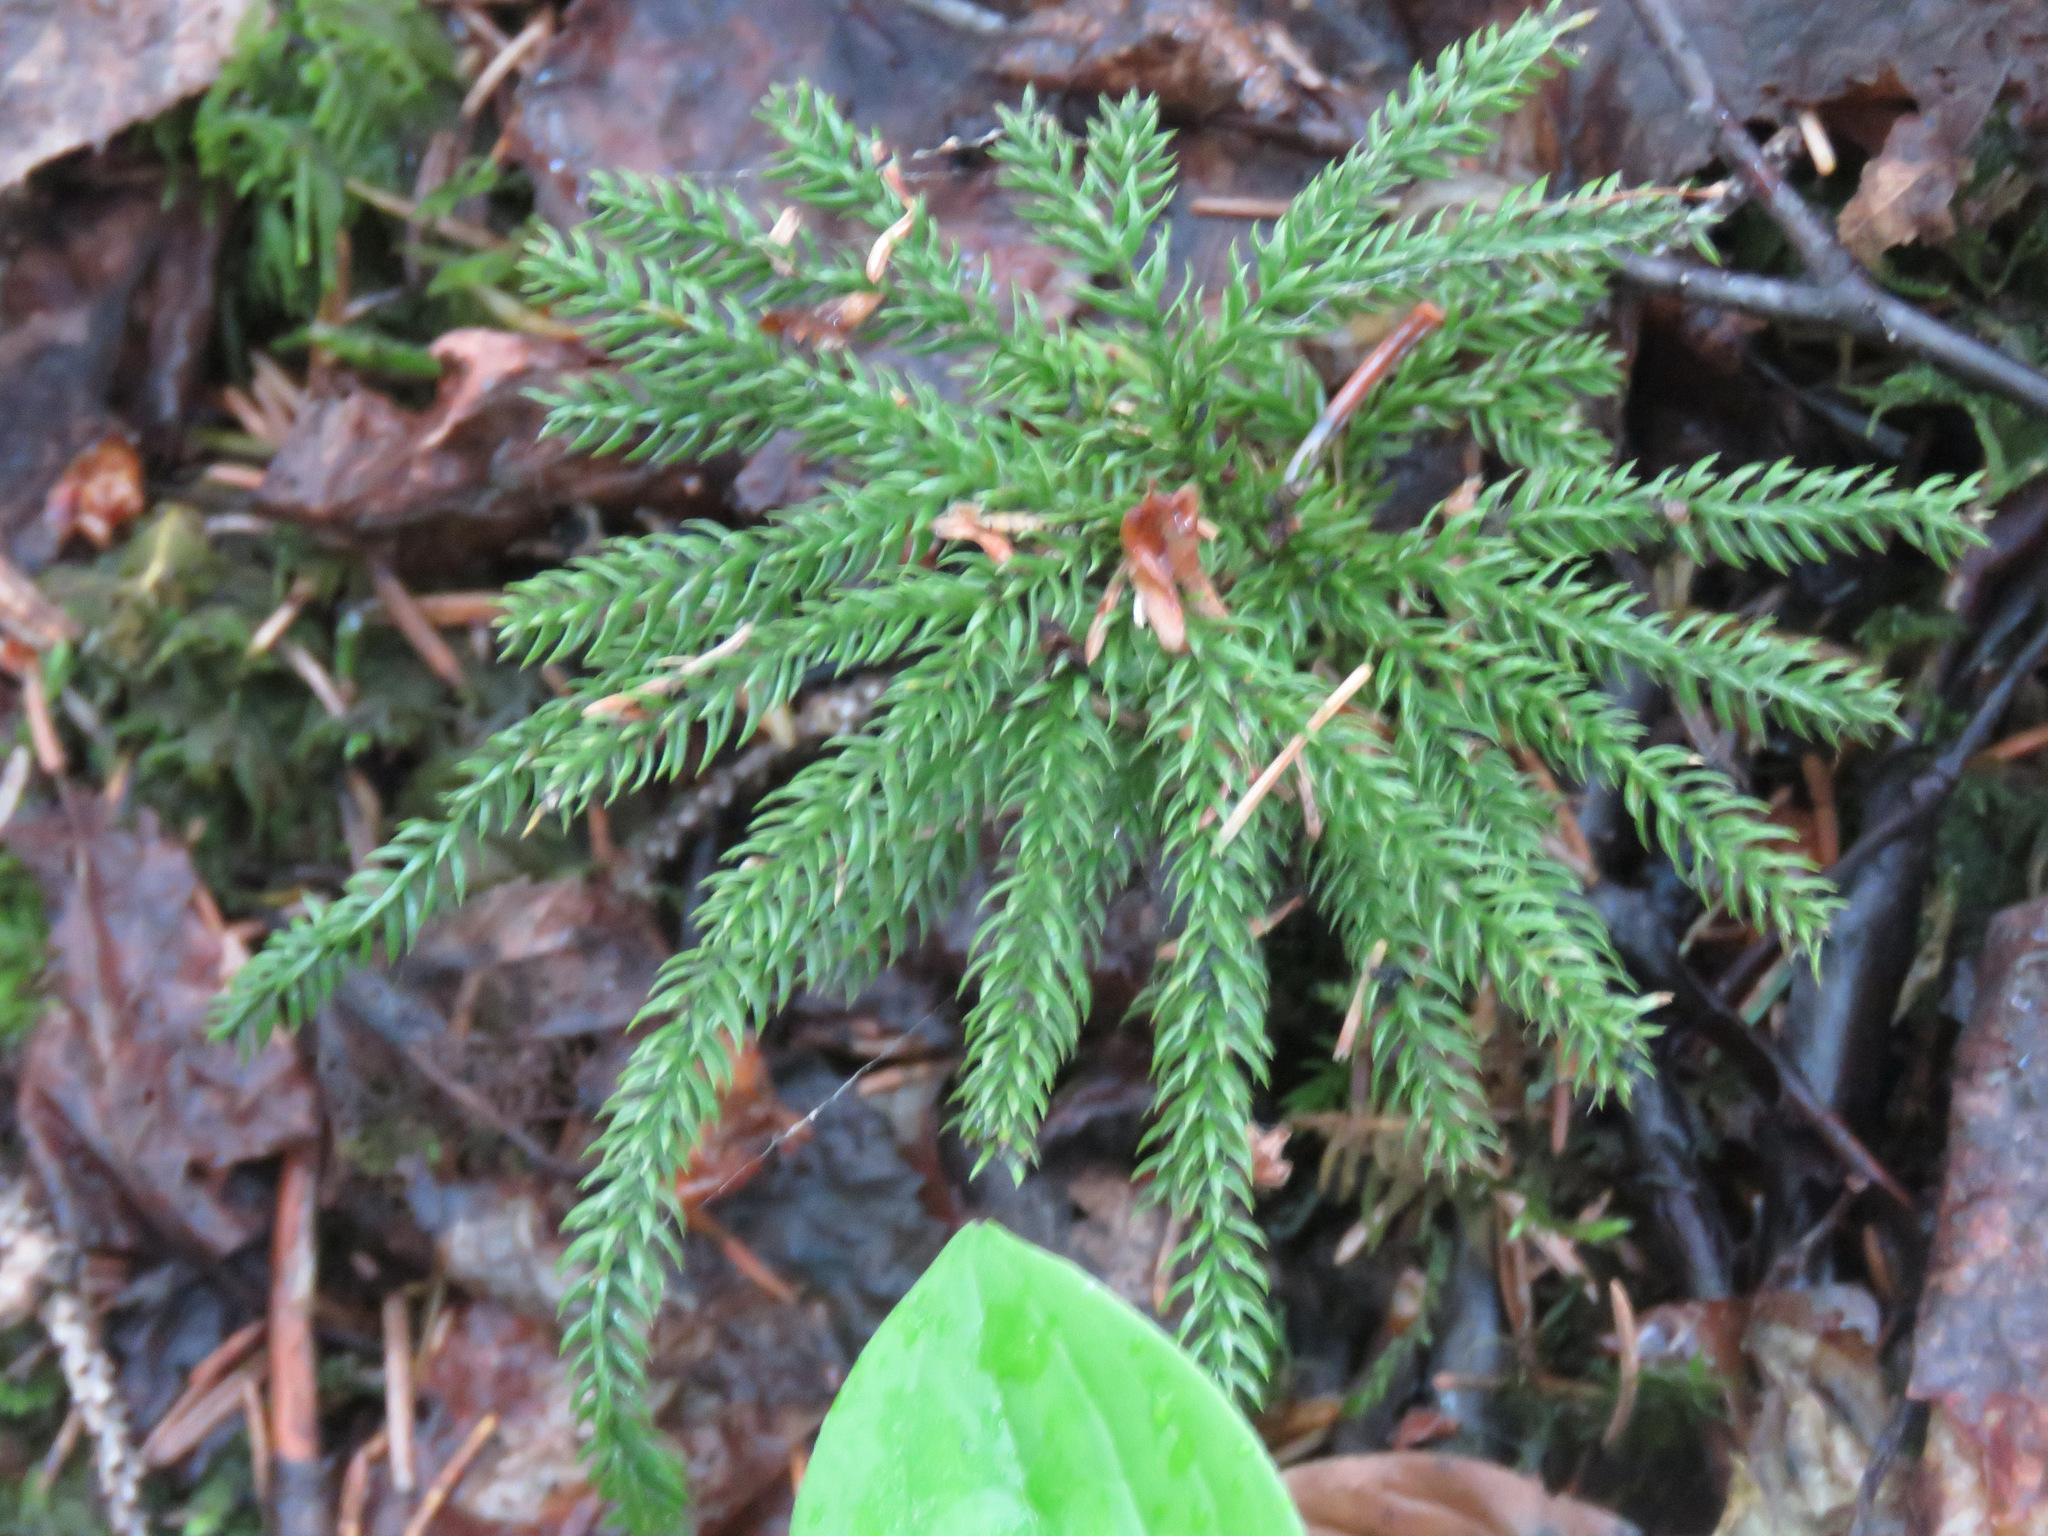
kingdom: Plantae
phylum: Tracheophyta
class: Lycopodiopsida
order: Lycopodiales
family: Lycopodiaceae
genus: Dendrolycopodium
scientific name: Dendrolycopodium dendroideum
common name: Northern tree-clubmoss
